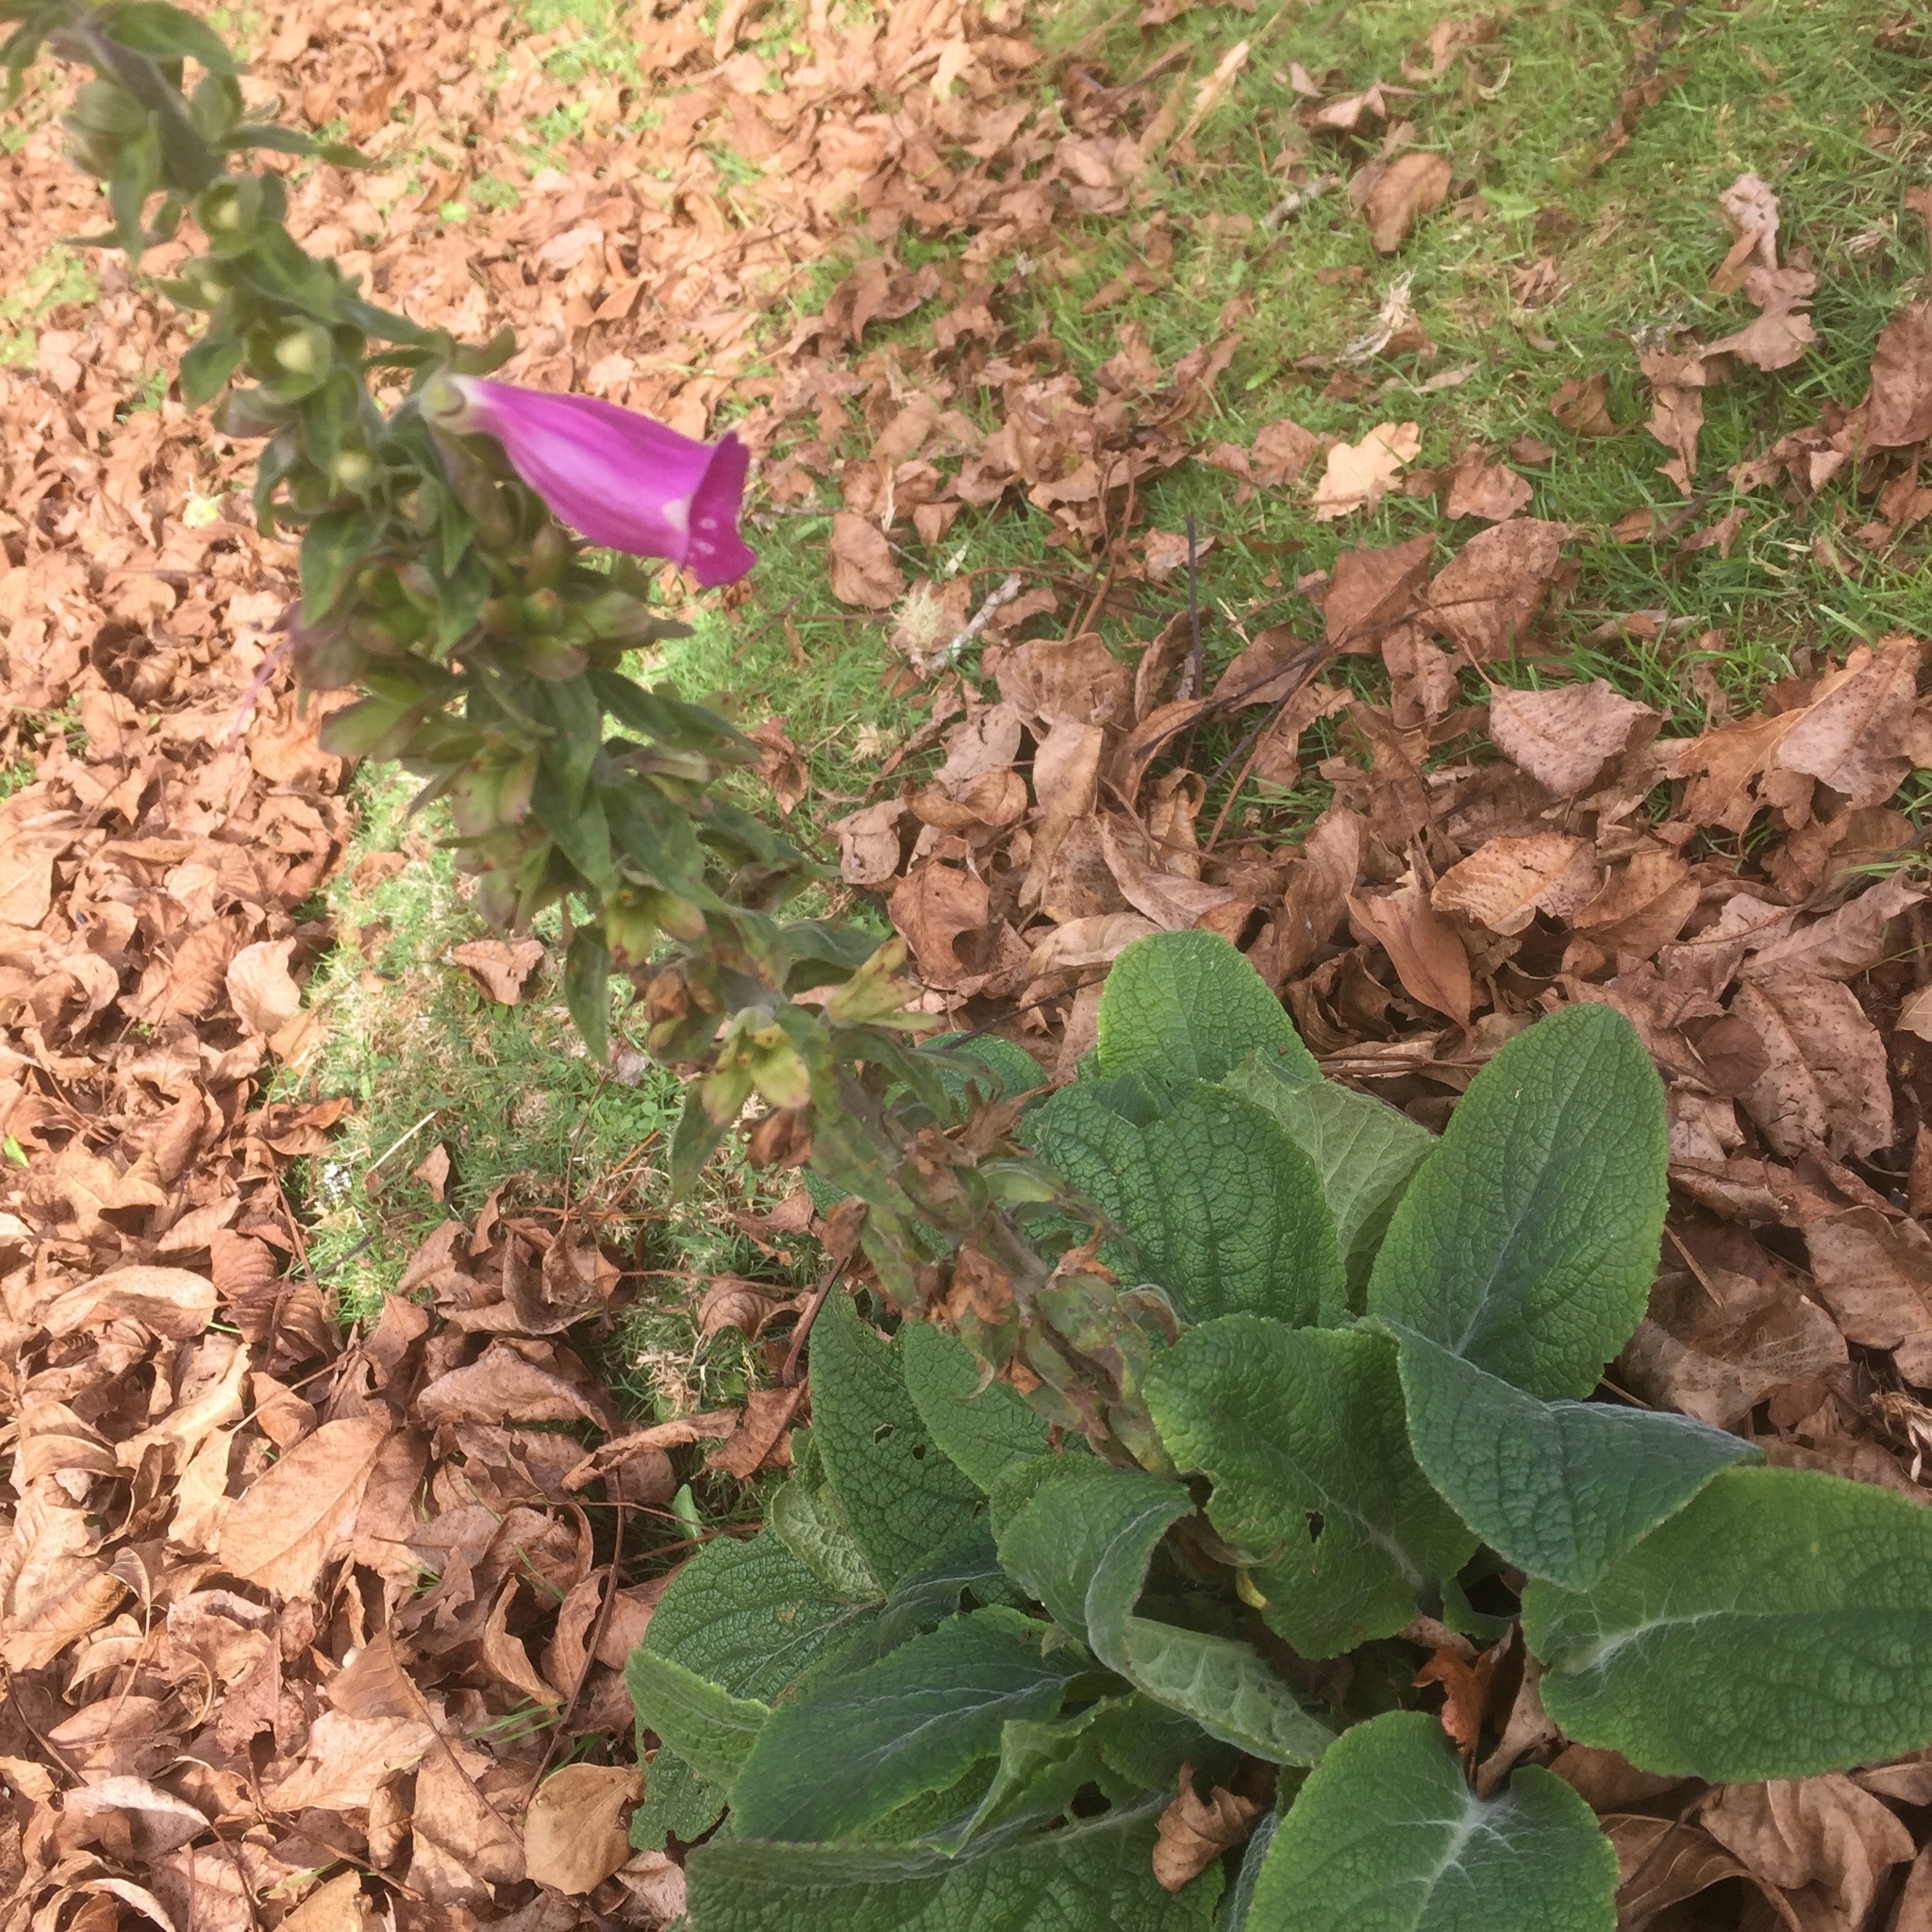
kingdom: Plantae
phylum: Tracheophyta
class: Magnoliopsida
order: Lamiales
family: Plantaginaceae
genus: Digitalis
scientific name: Digitalis purpurea
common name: Foxglove
